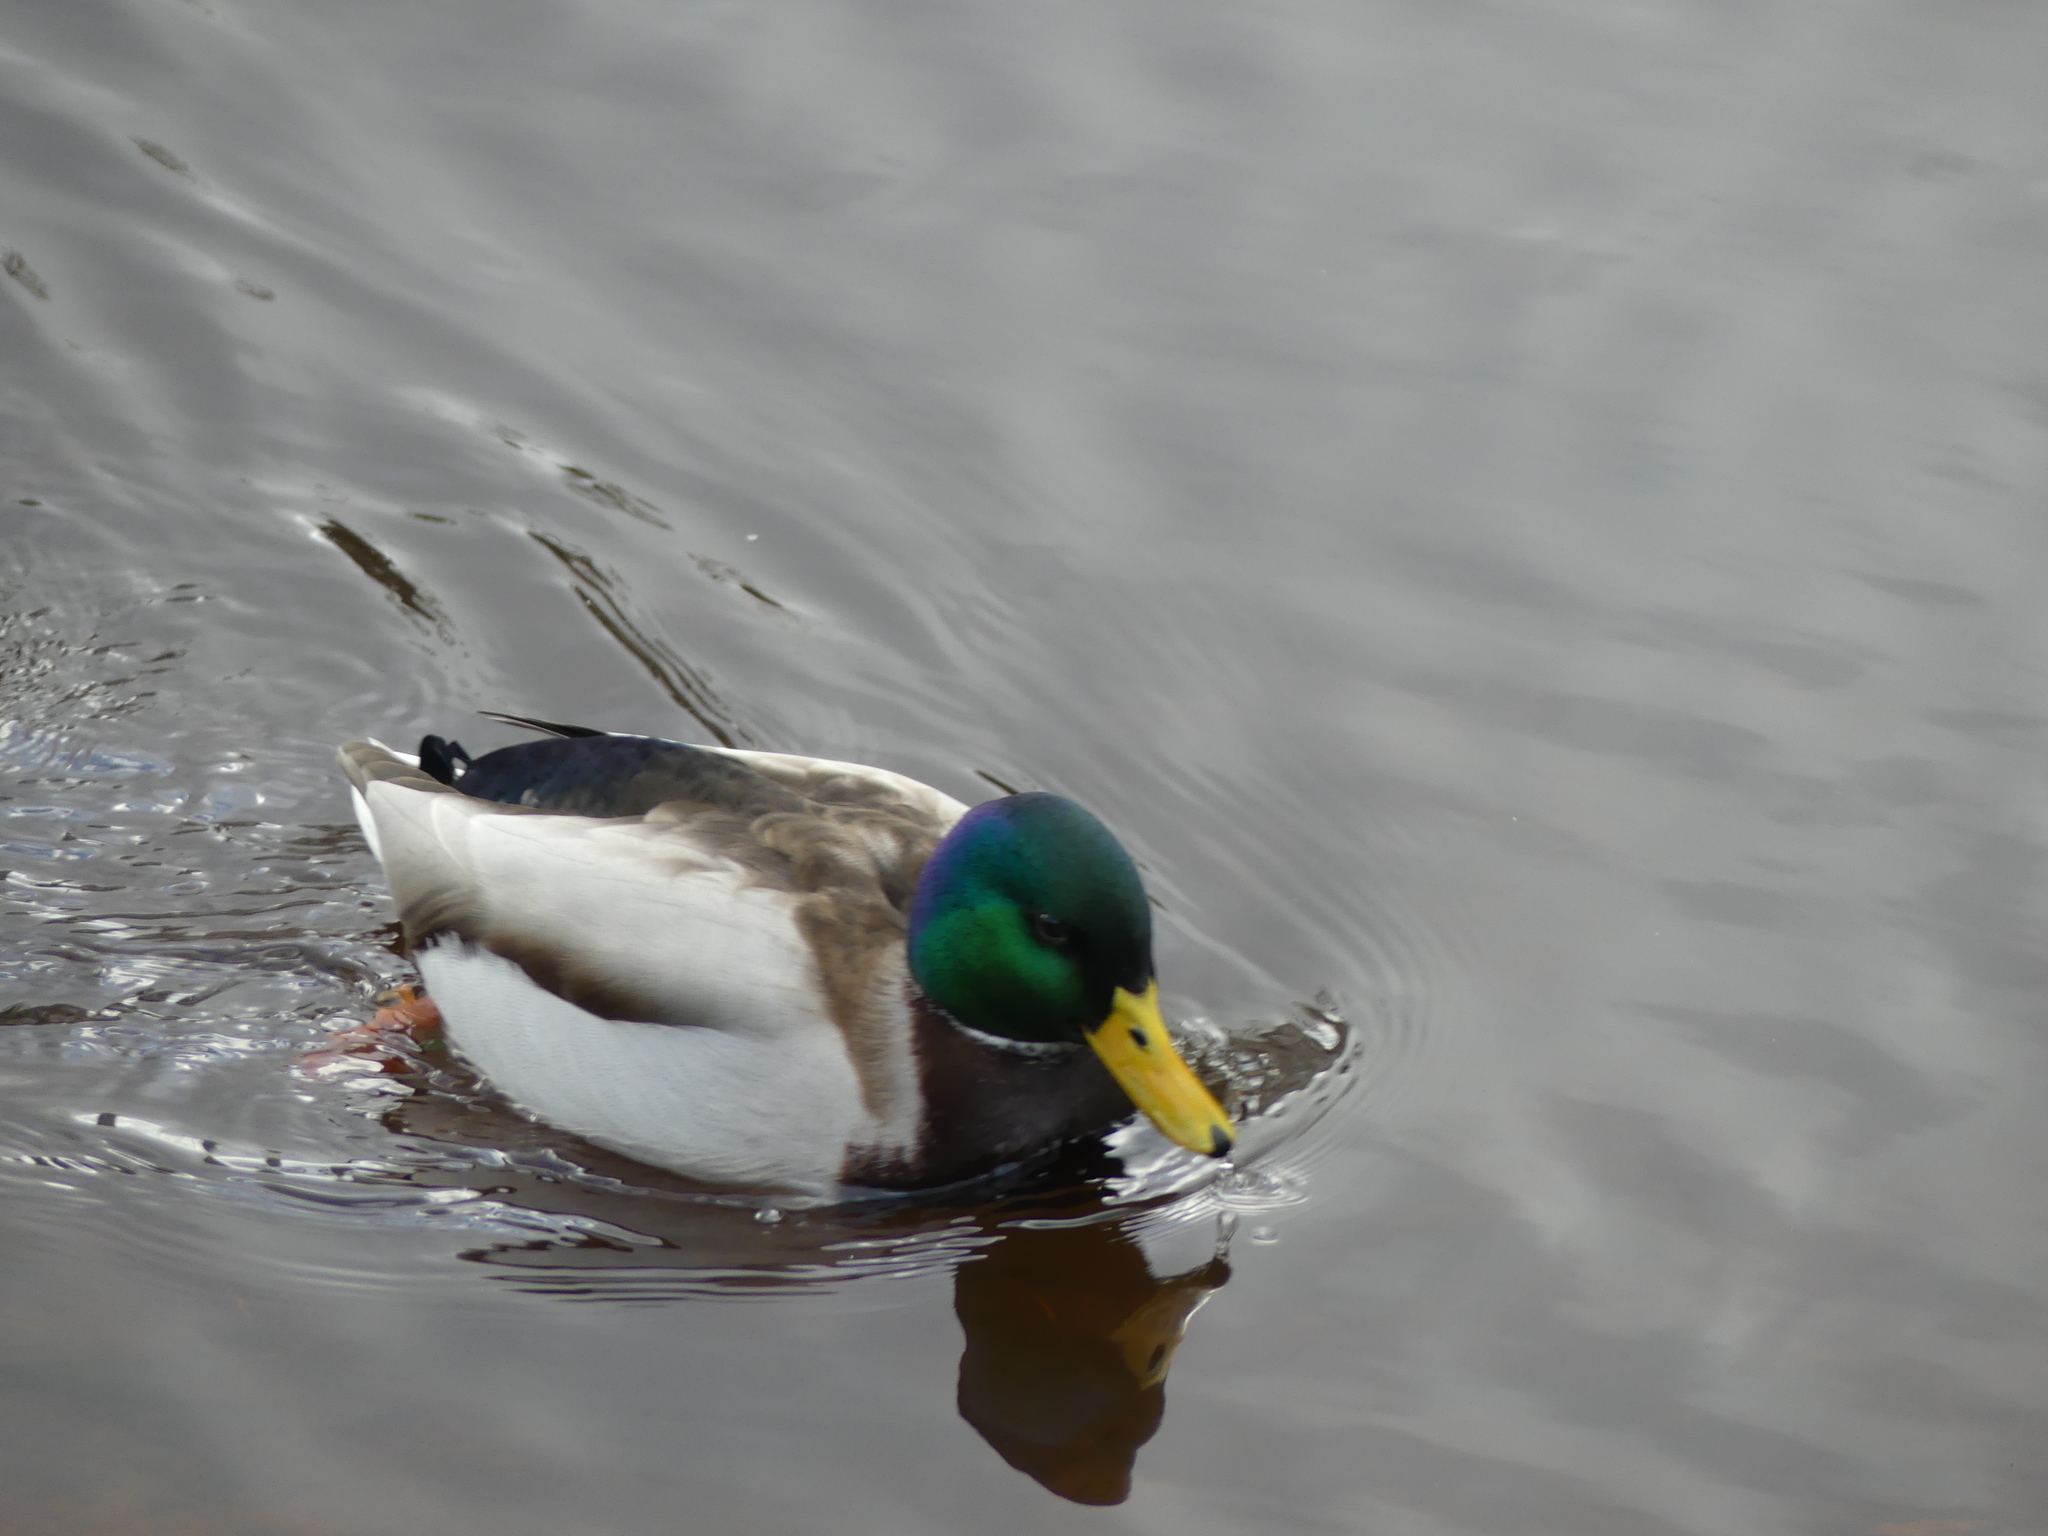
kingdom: Animalia
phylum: Chordata
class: Aves
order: Anseriformes
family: Anatidae
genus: Anas
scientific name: Anas platyrhynchos
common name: Mallard
